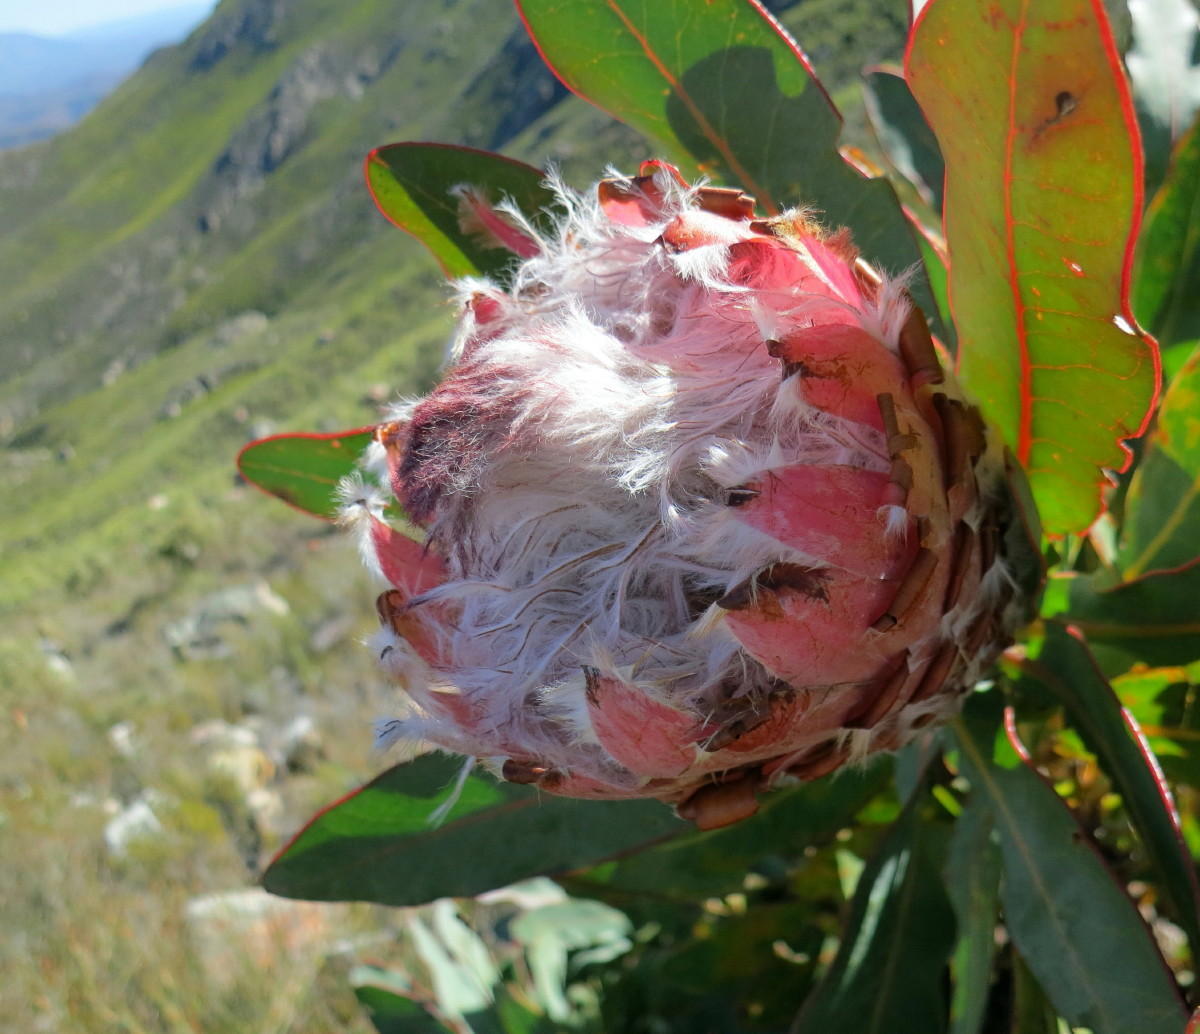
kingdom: Plantae
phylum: Tracheophyta
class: Magnoliopsida
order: Proteales
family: Proteaceae
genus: Protea
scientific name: Protea magnifica
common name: Bearded sugarbush
